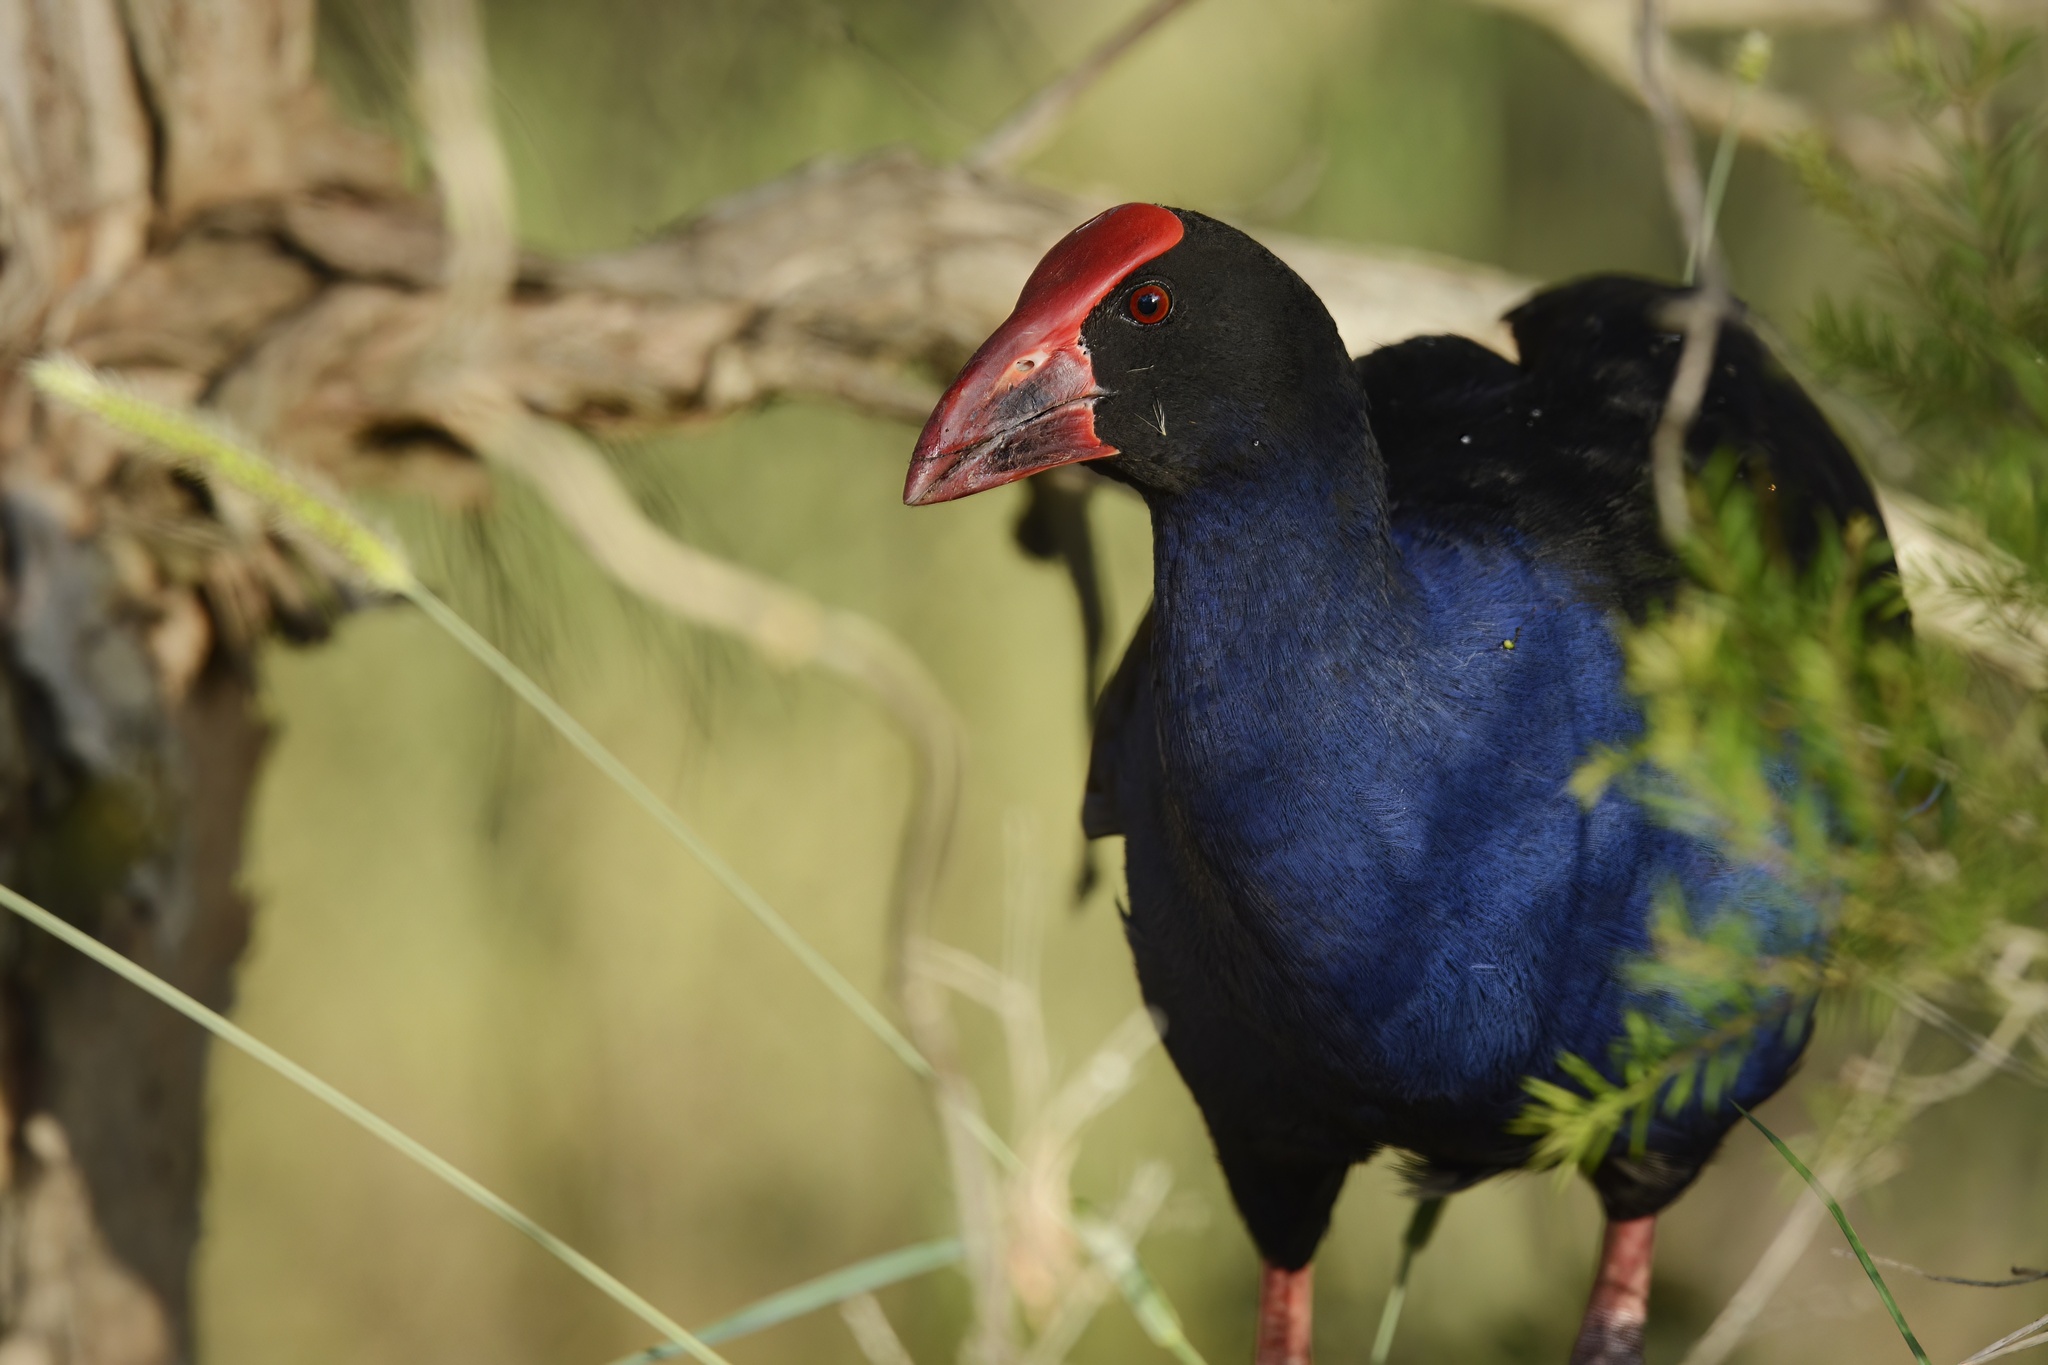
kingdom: Animalia
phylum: Chordata
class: Aves
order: Gruiformes
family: Rallidae
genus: Porphyrio
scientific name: Porphyrio melanotus
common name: Australasian swamphen
